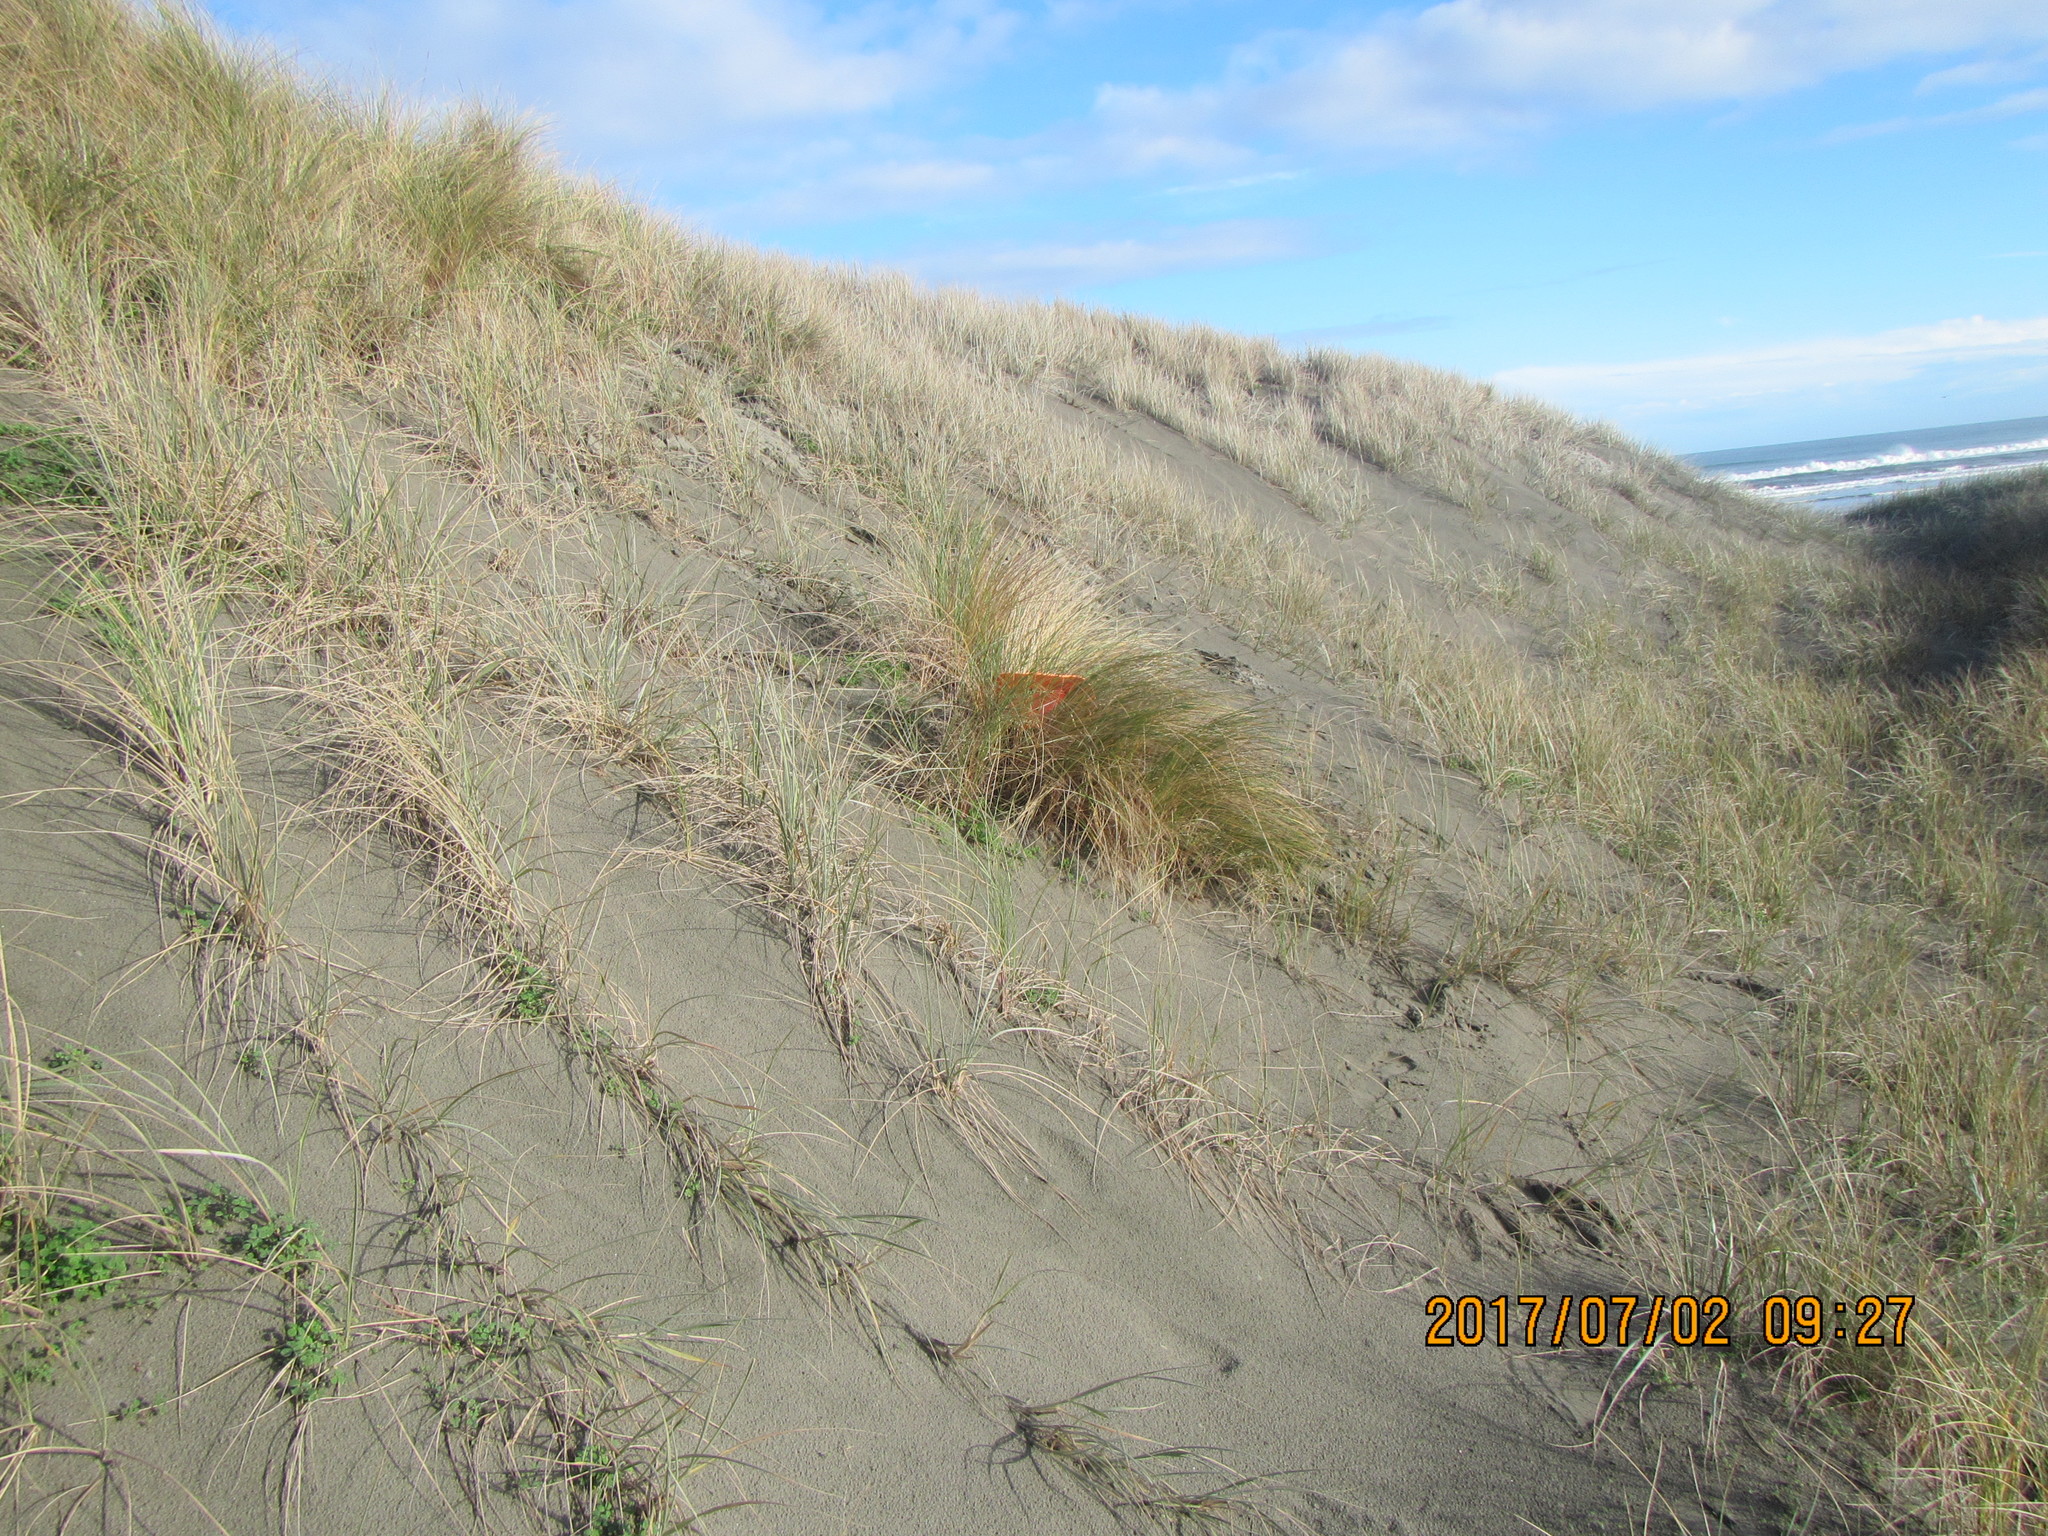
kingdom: Animalia
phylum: Arthropoda
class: Arachnida
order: Araneae
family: Thomisidae
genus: Sidymella
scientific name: Sidymella trapezia
